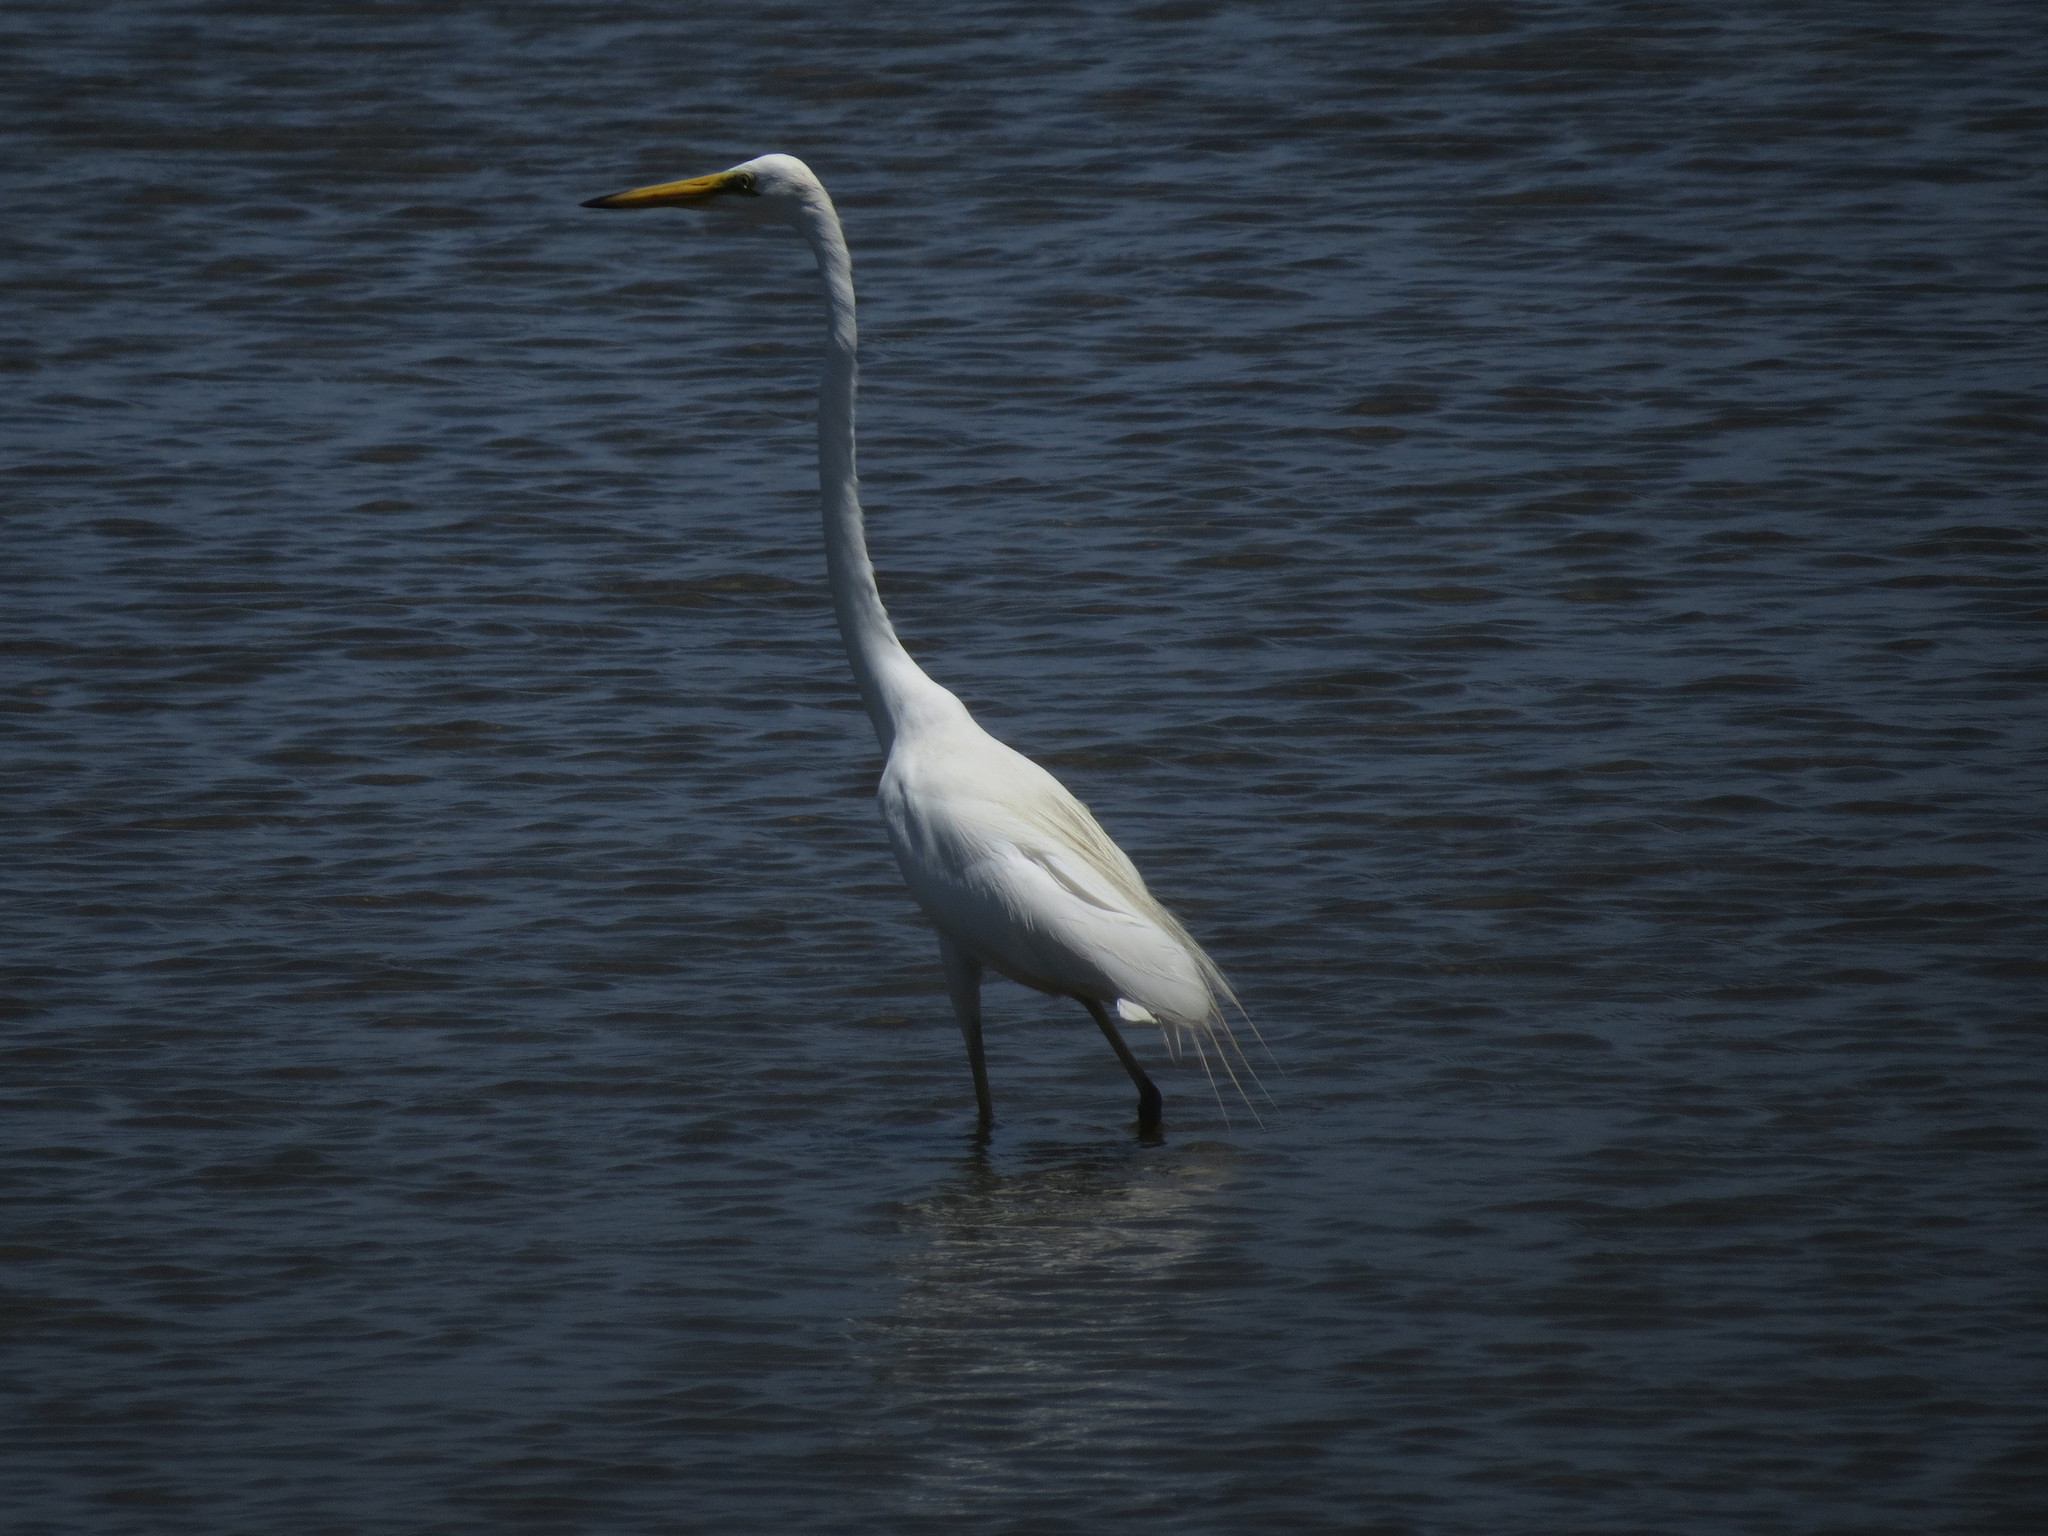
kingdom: Animalia
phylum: Chordata
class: Aves
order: Pelecaniformes
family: Ardeidae
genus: Ardea
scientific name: Ardea alba
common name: Great egret
